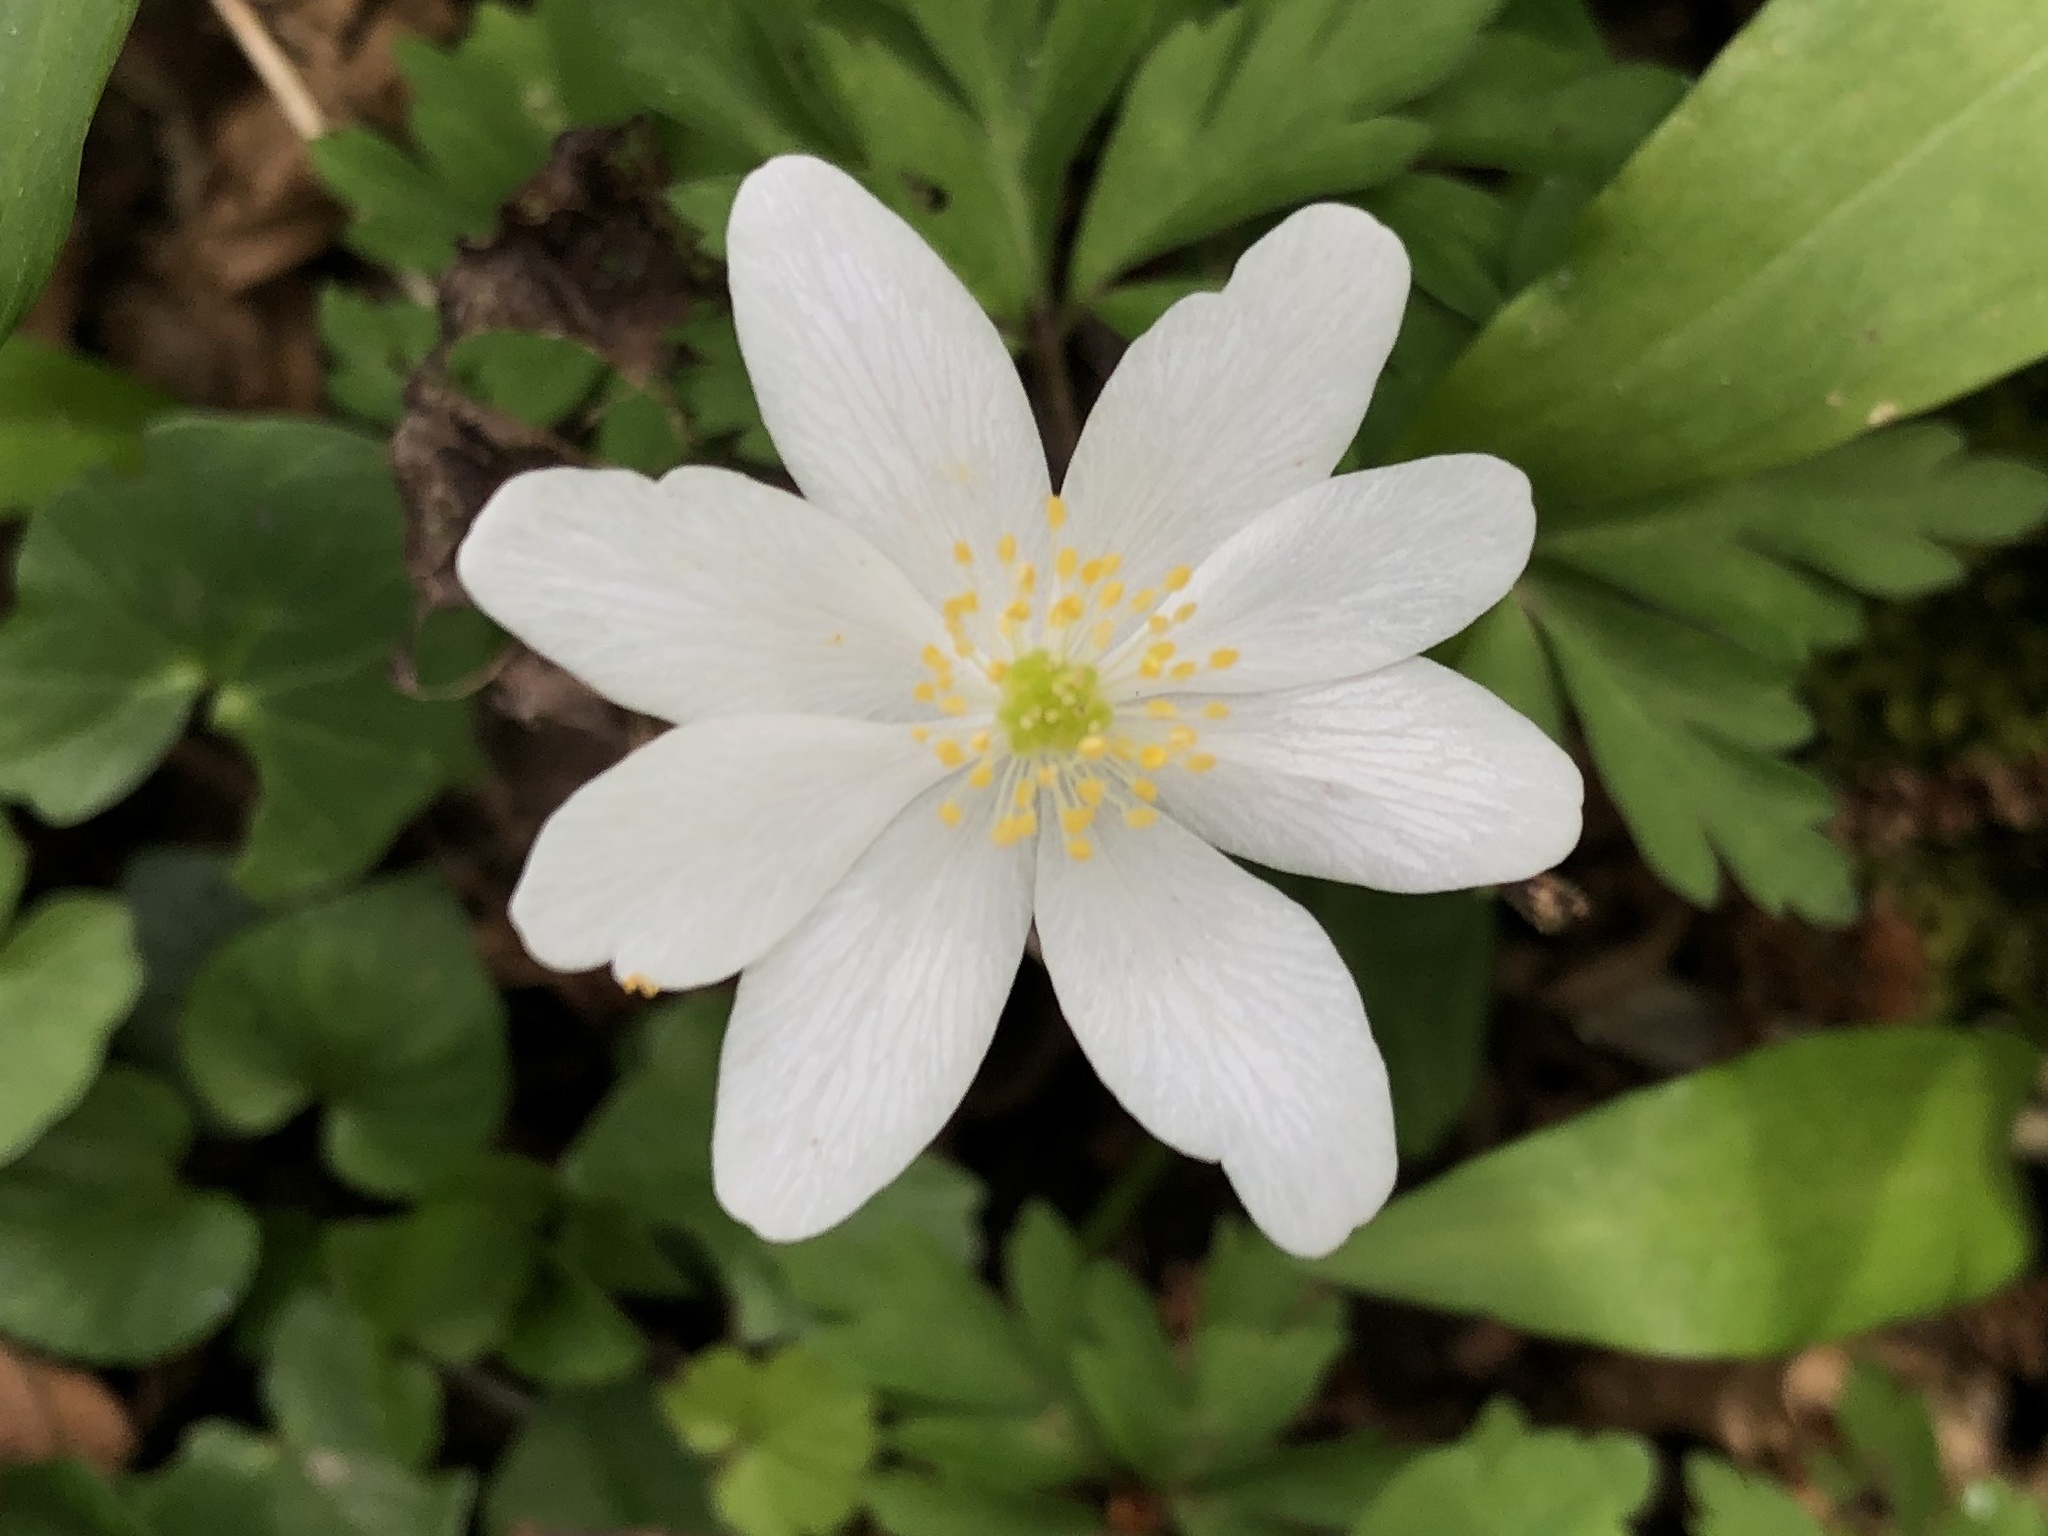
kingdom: Plantae
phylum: Tracheophyta
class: Magnoliopsida
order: Ranunculales
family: Ranunculaceae
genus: Anemone
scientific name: Anemone nemorosa
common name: Wood anemone
